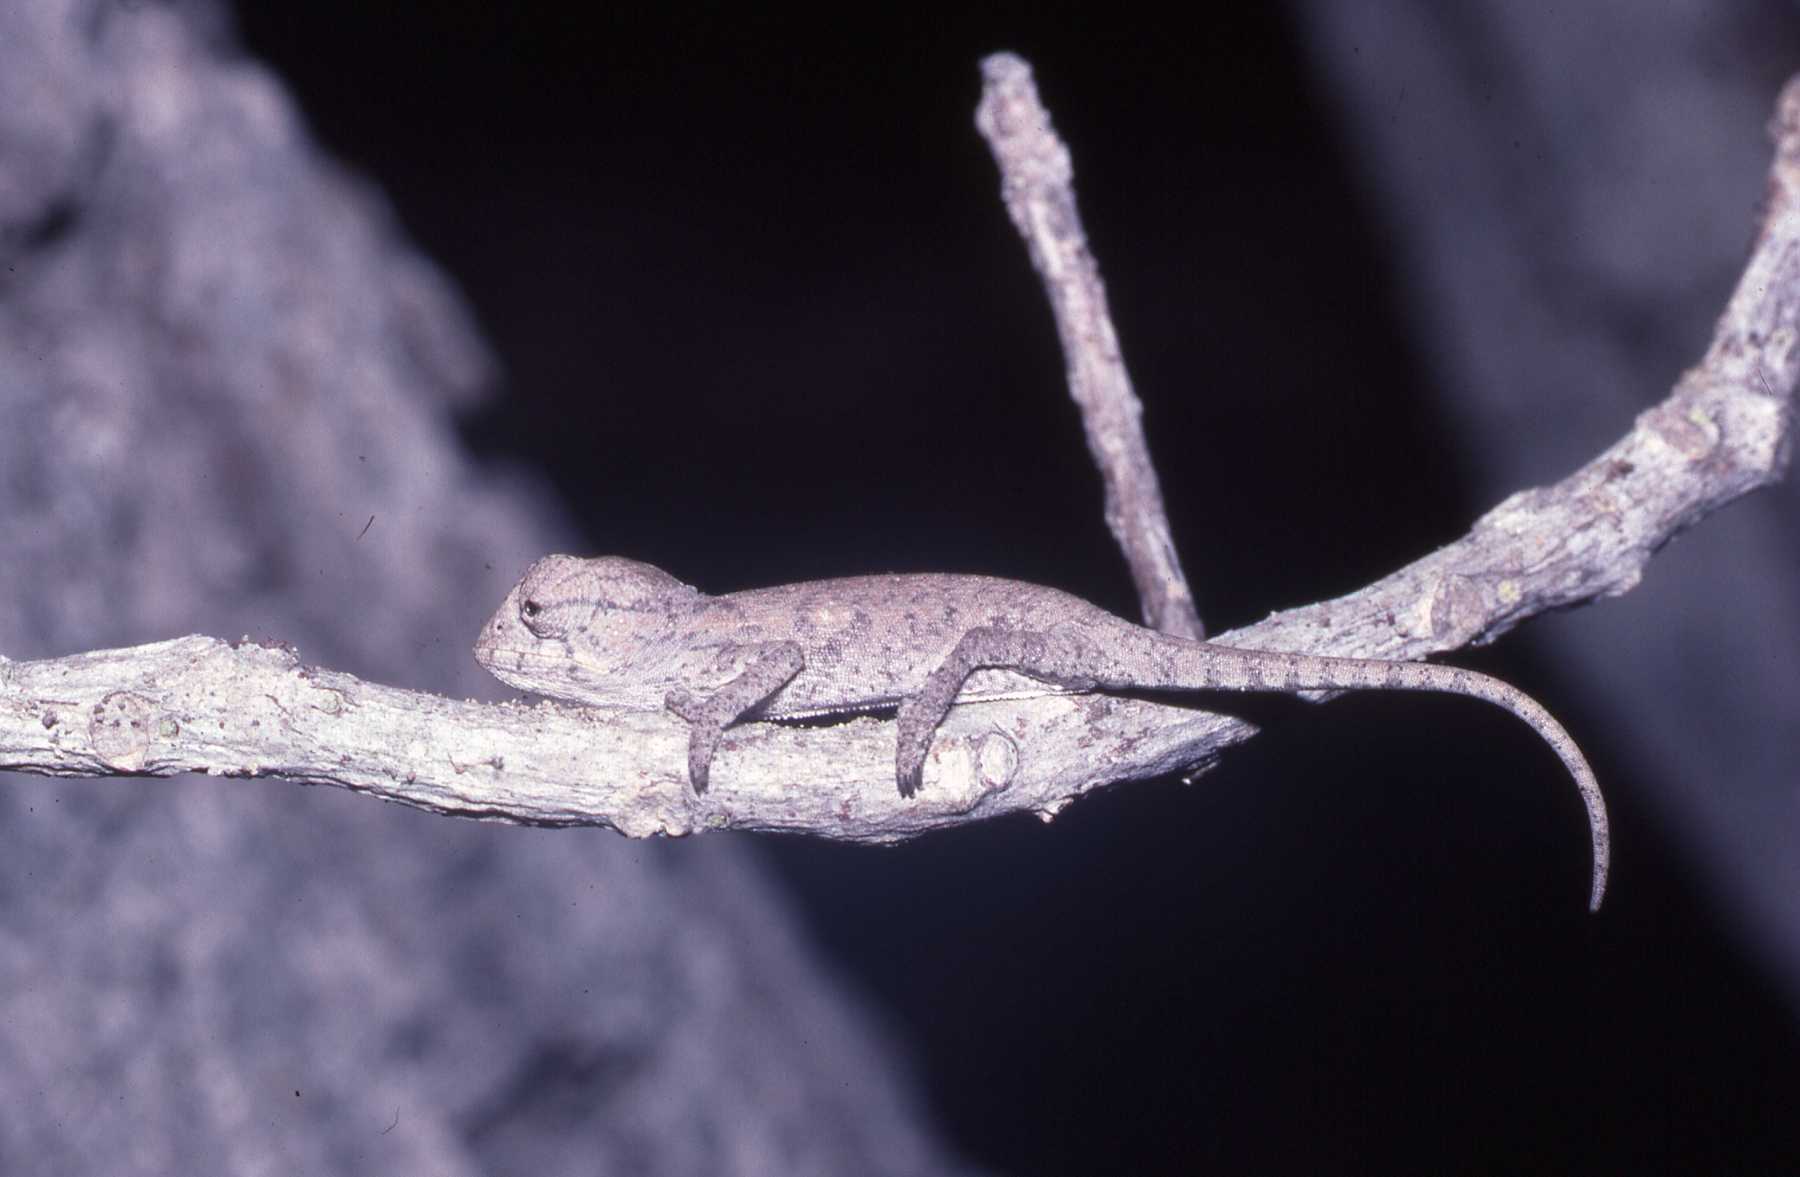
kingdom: Animalia
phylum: Chordata
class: Squamata
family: Chamaeleonidae
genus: Furcifer
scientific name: Furcifer
